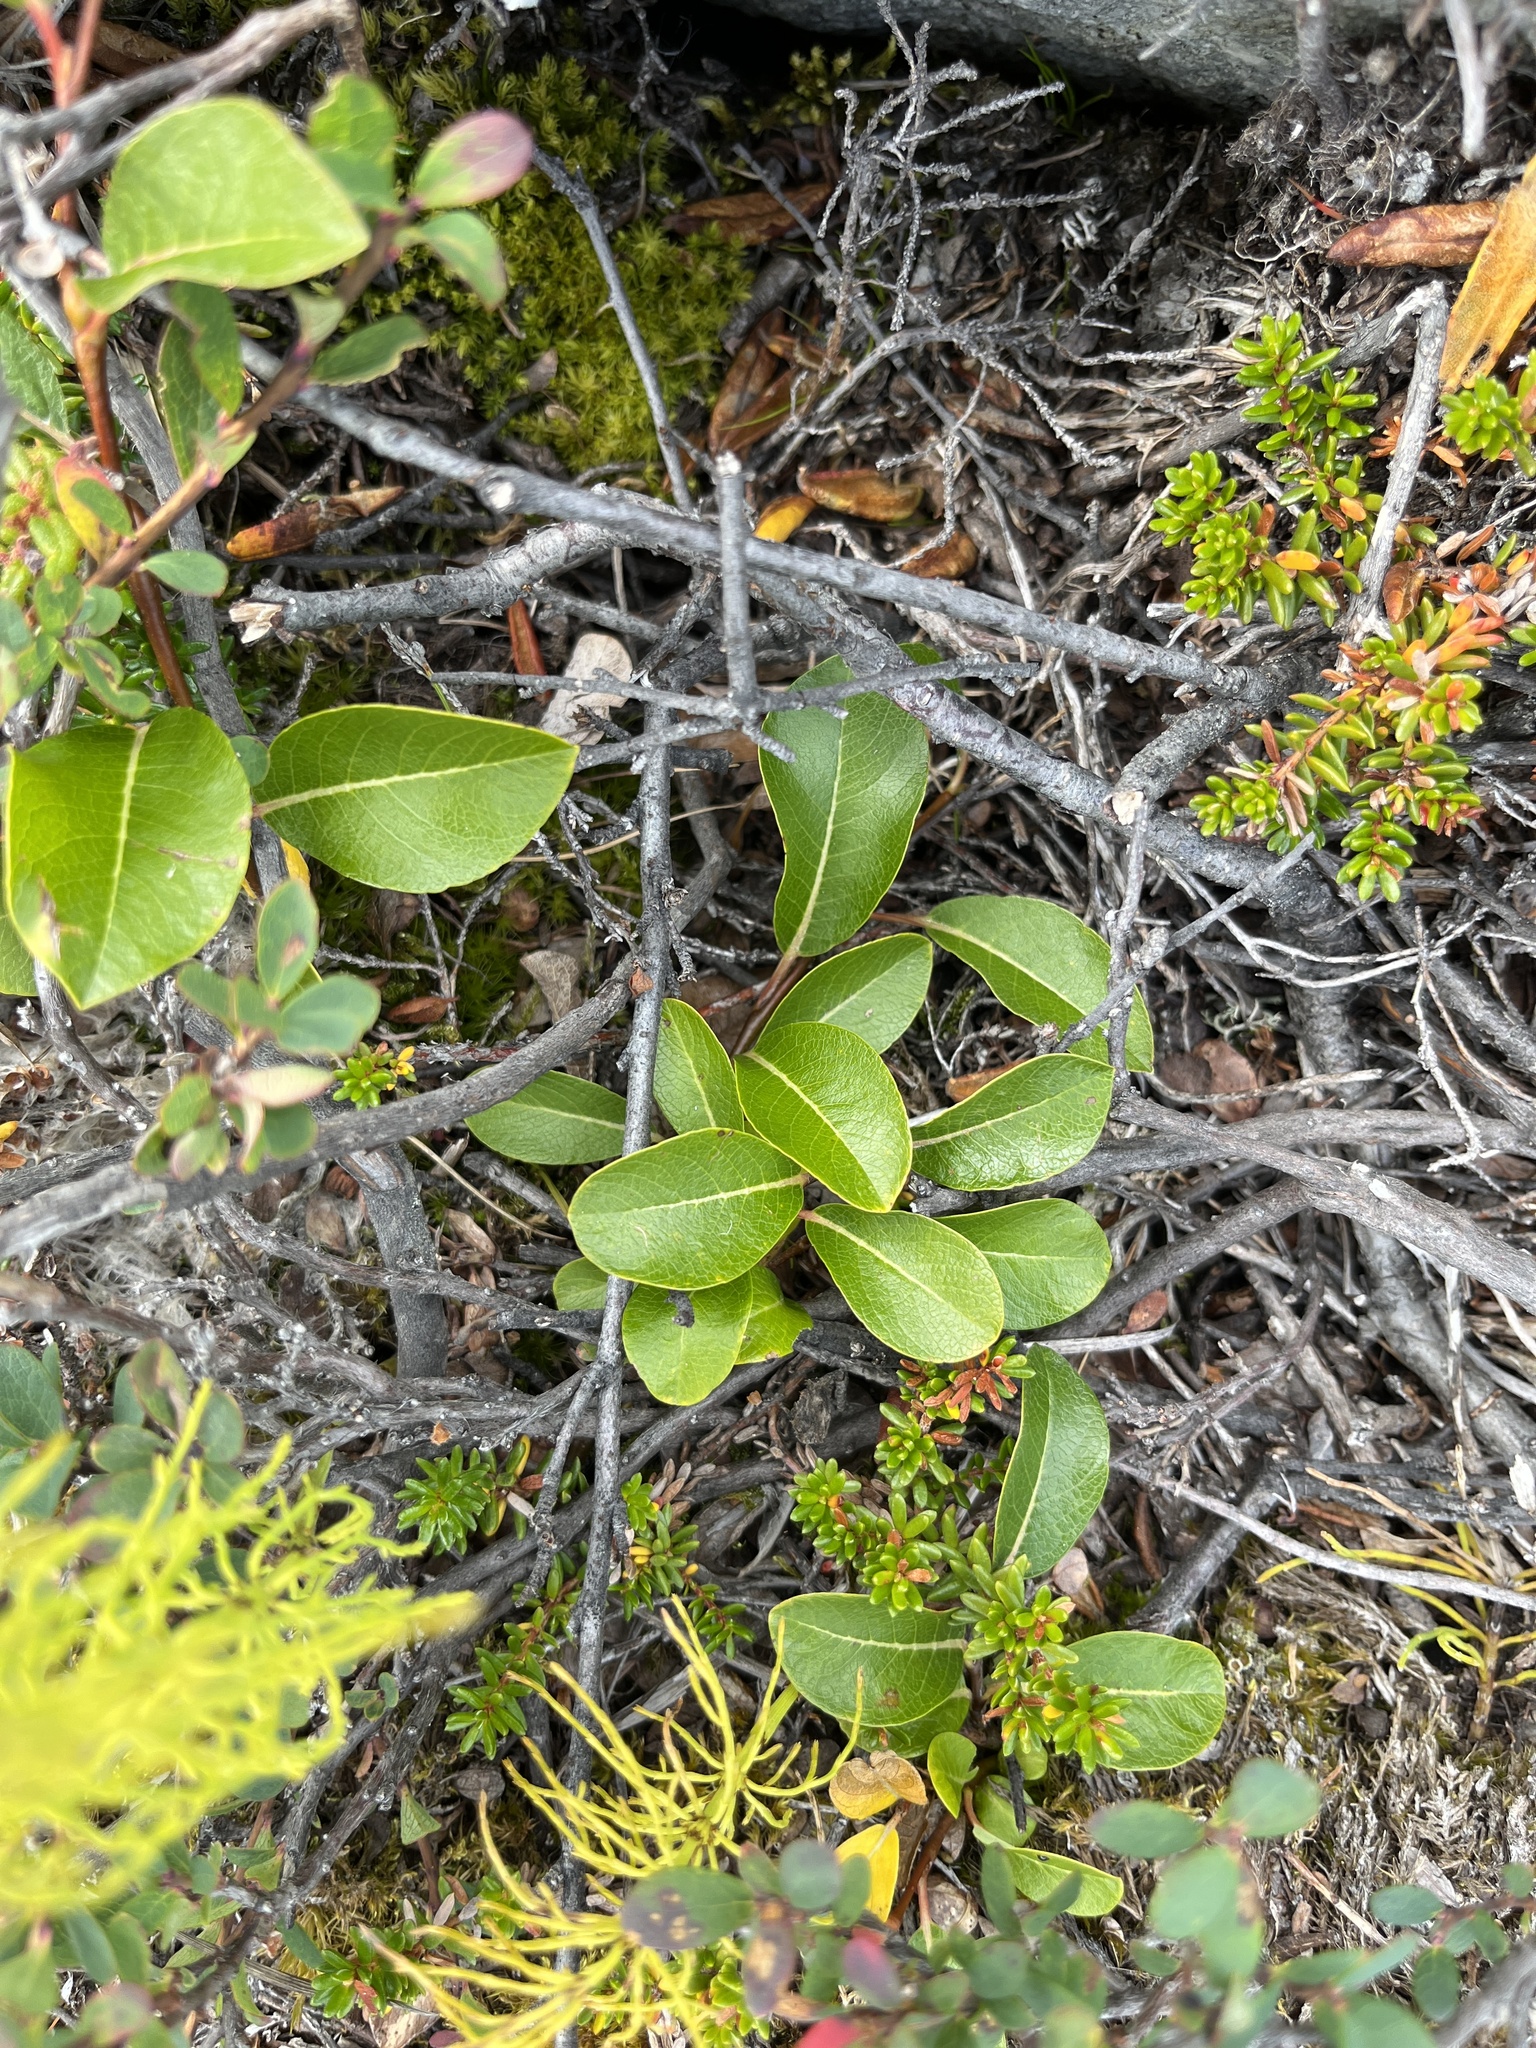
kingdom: Plantae
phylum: Tracheophyta
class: Magnoliopsida
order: Malpighiales
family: Salicaceae
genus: Salix
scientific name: Salix arctica
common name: Arctic willow
